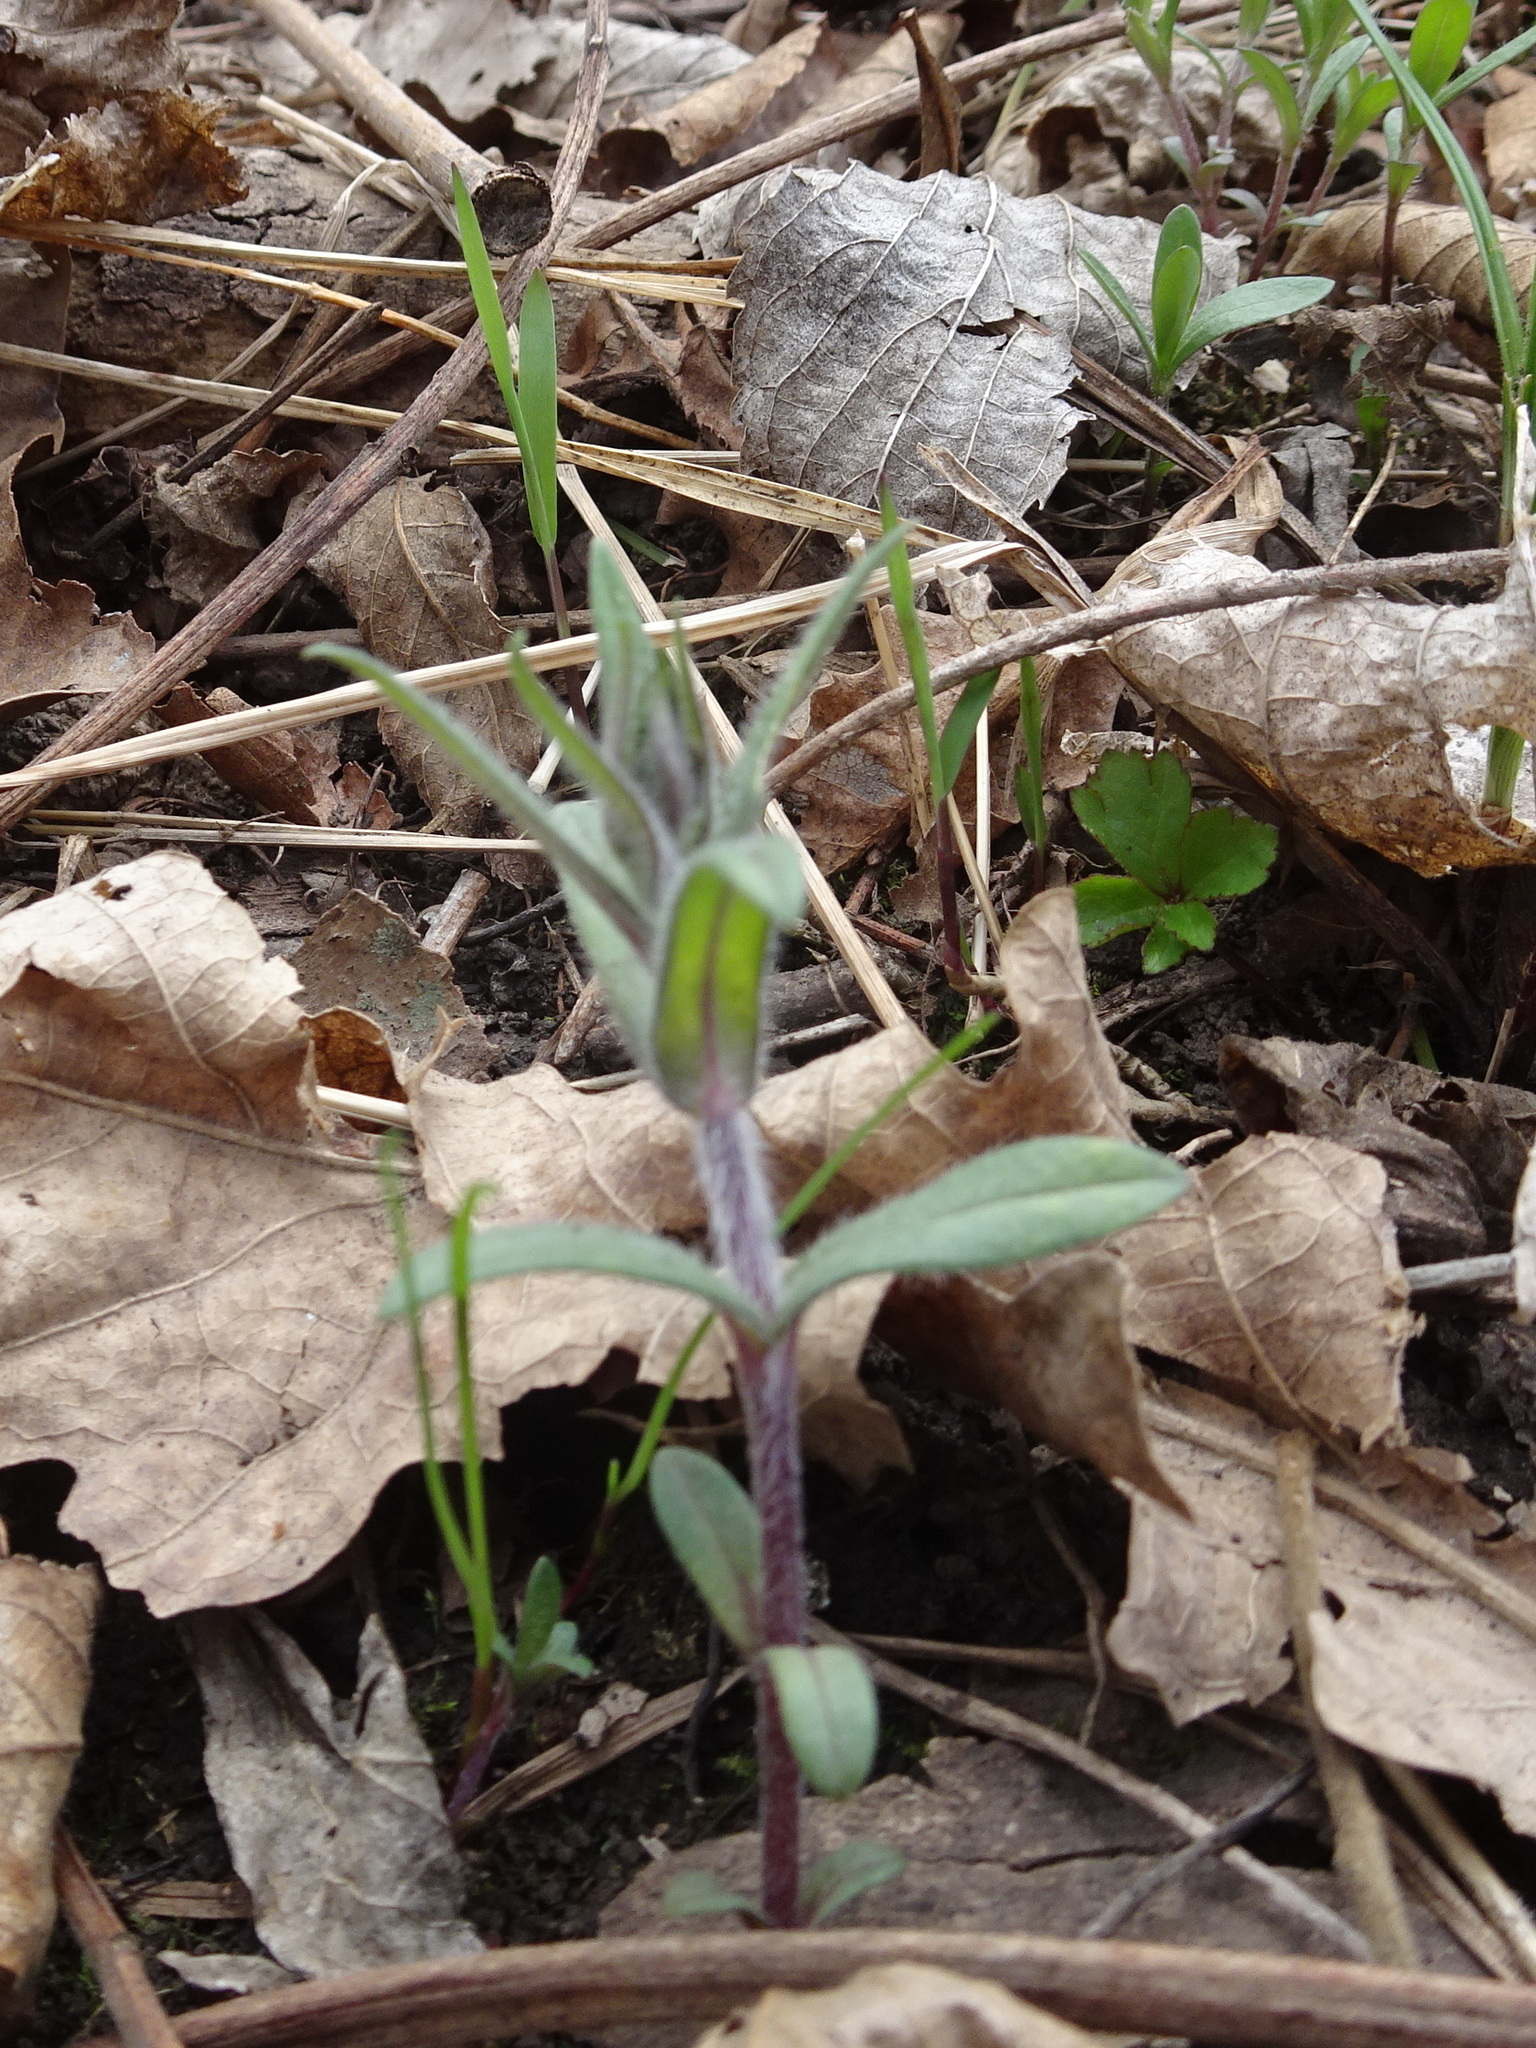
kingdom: Plantae
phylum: Tracheophyta
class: Magnoliopsida
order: Ericales
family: Polemoniaceae
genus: Phlox
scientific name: Phlox divaricata
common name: Blue phlox
